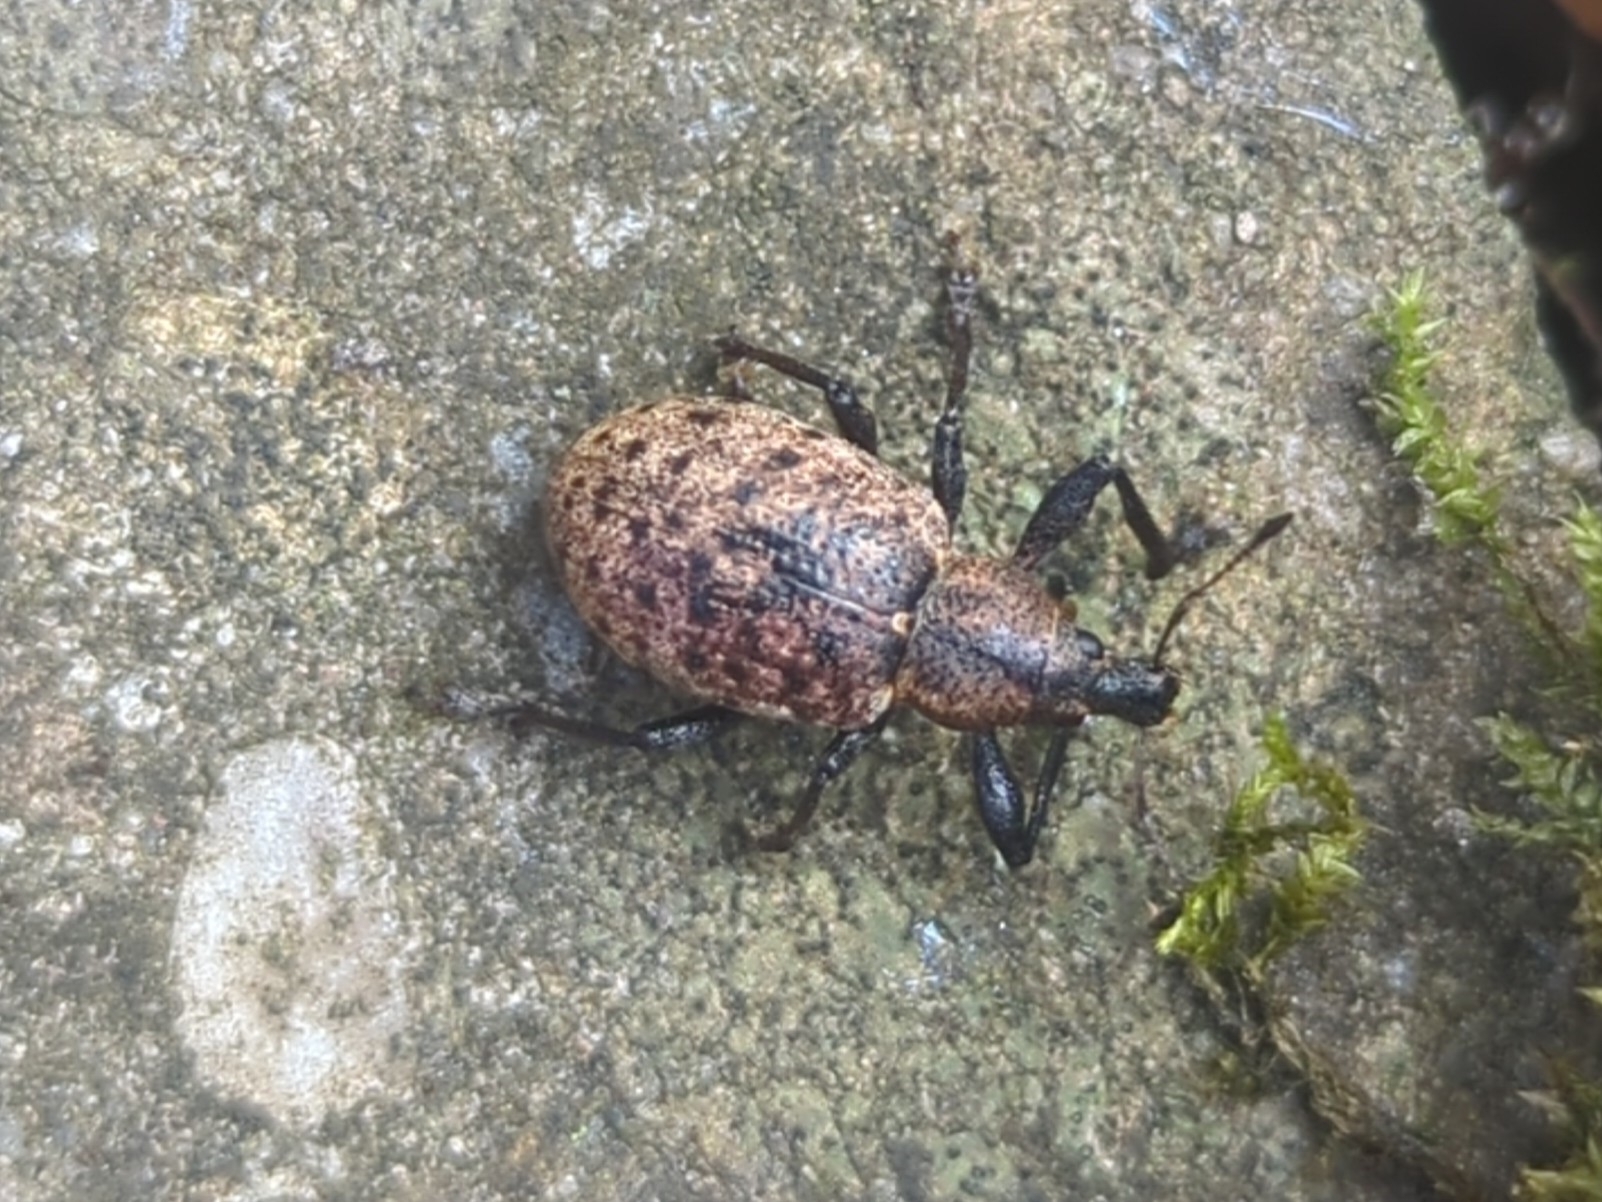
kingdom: Animalia
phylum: Arthropoda
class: Insecta
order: Coleoptera
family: Curculionidae
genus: Liophloeus
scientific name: Liophloeus tessulatus
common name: Weevil
